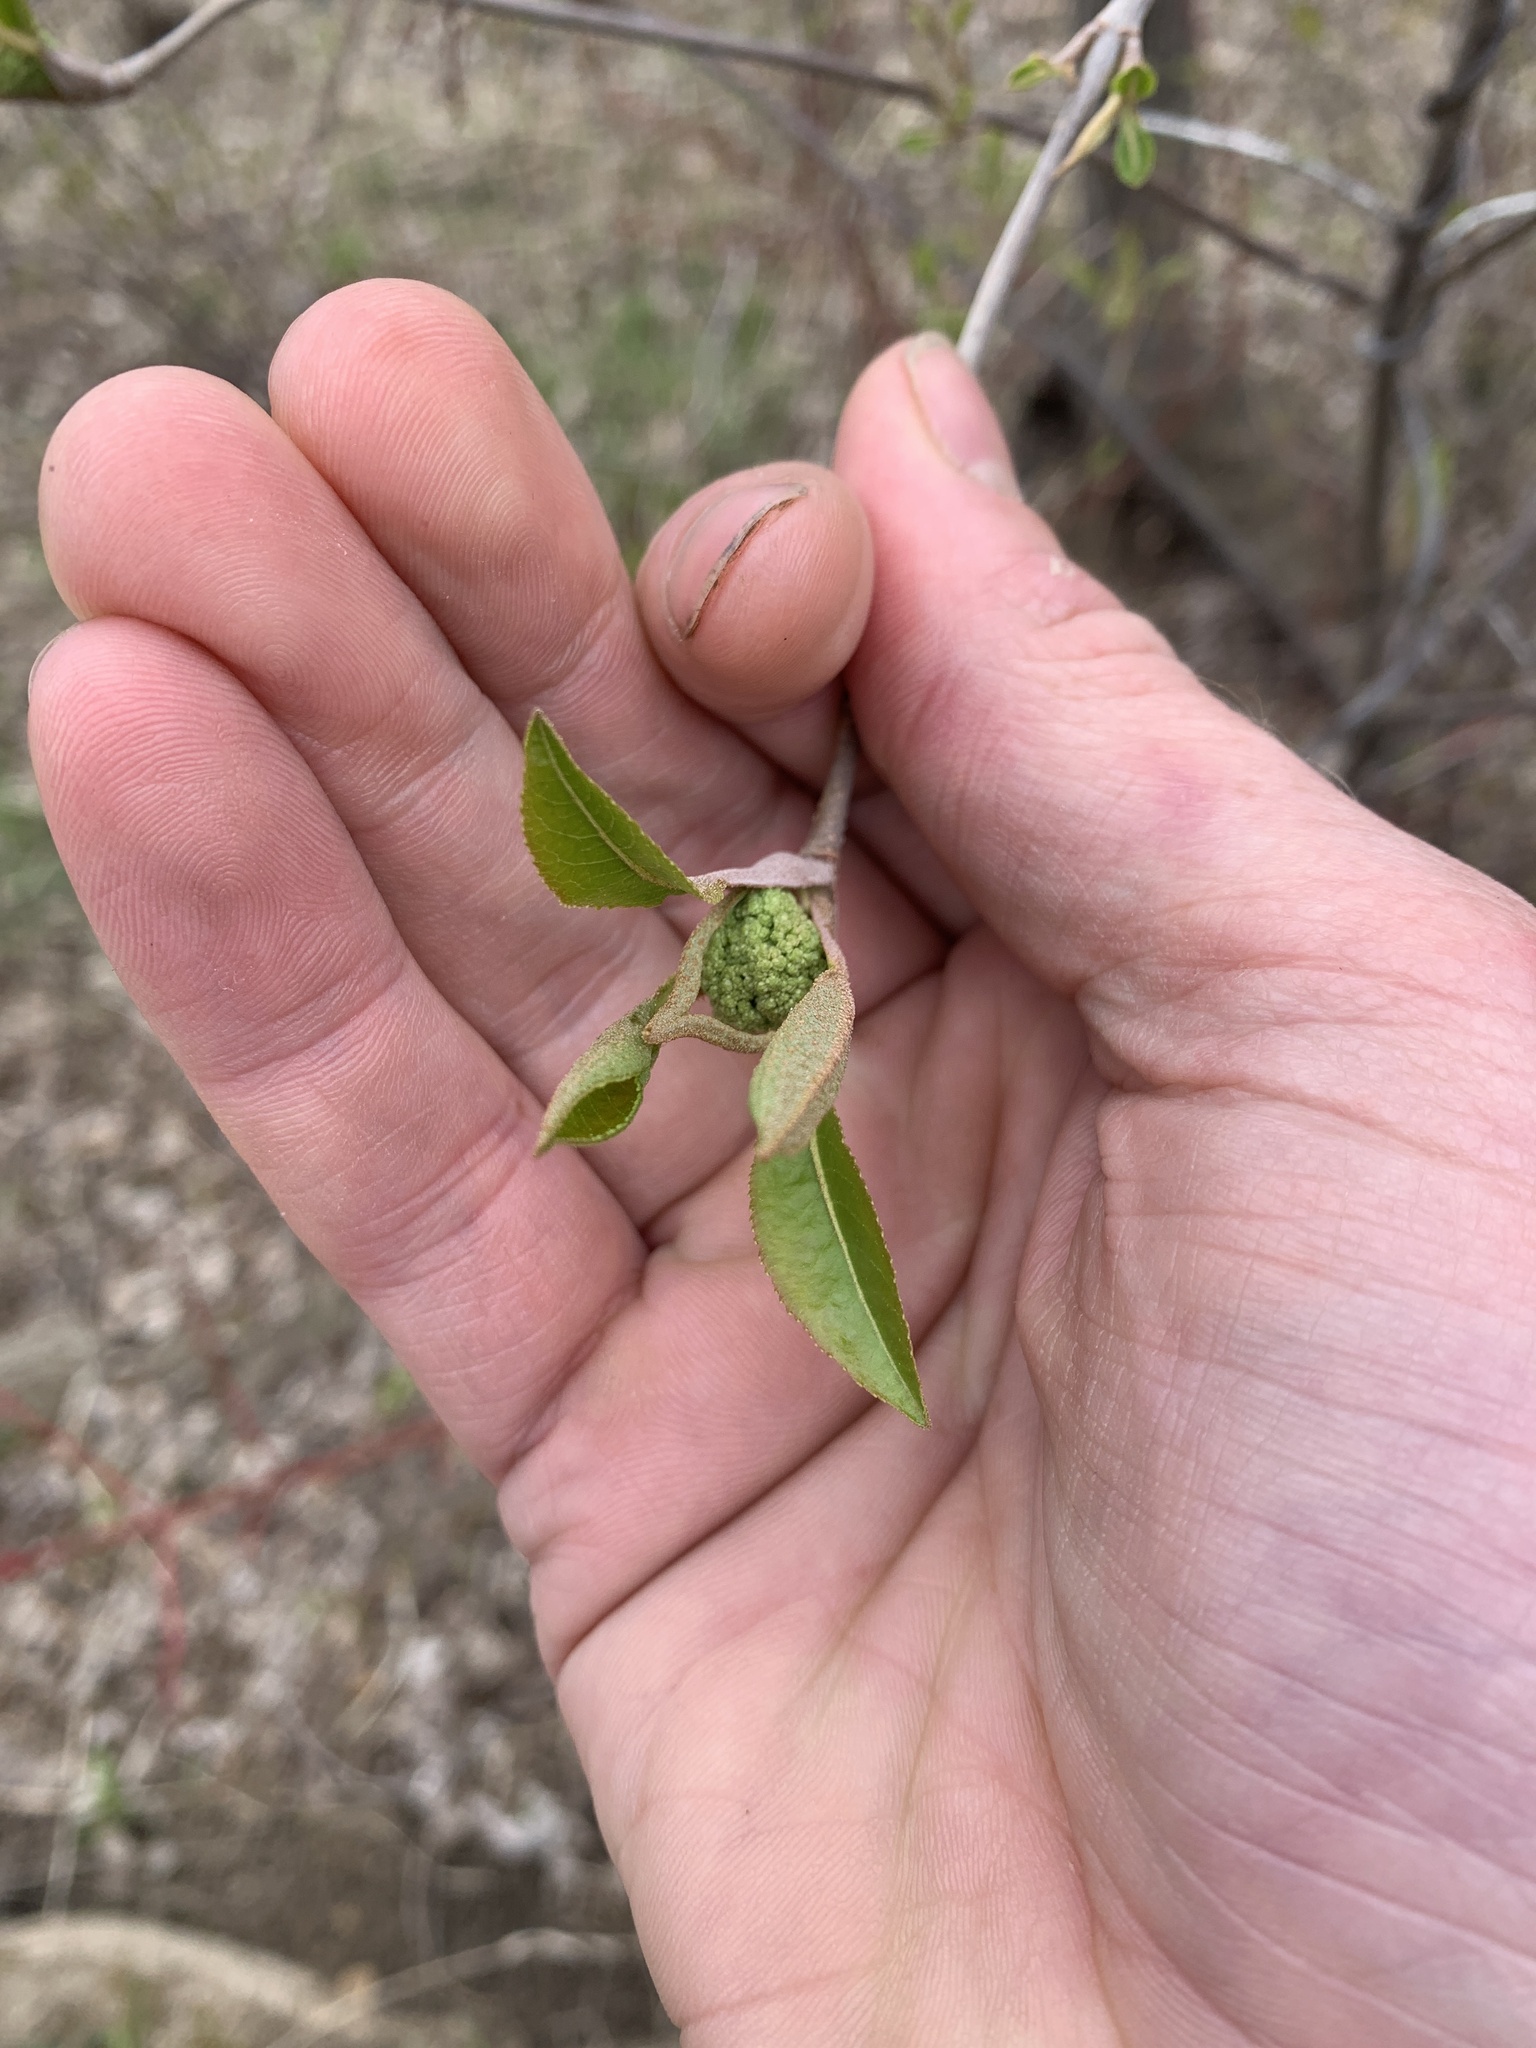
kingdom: Plantae
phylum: Tracheophyta
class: Magnoliopsida
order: Dipsacales
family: Viburnaceae
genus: Viburnum
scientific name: Viburnum cassinoides
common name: Swamp haw
